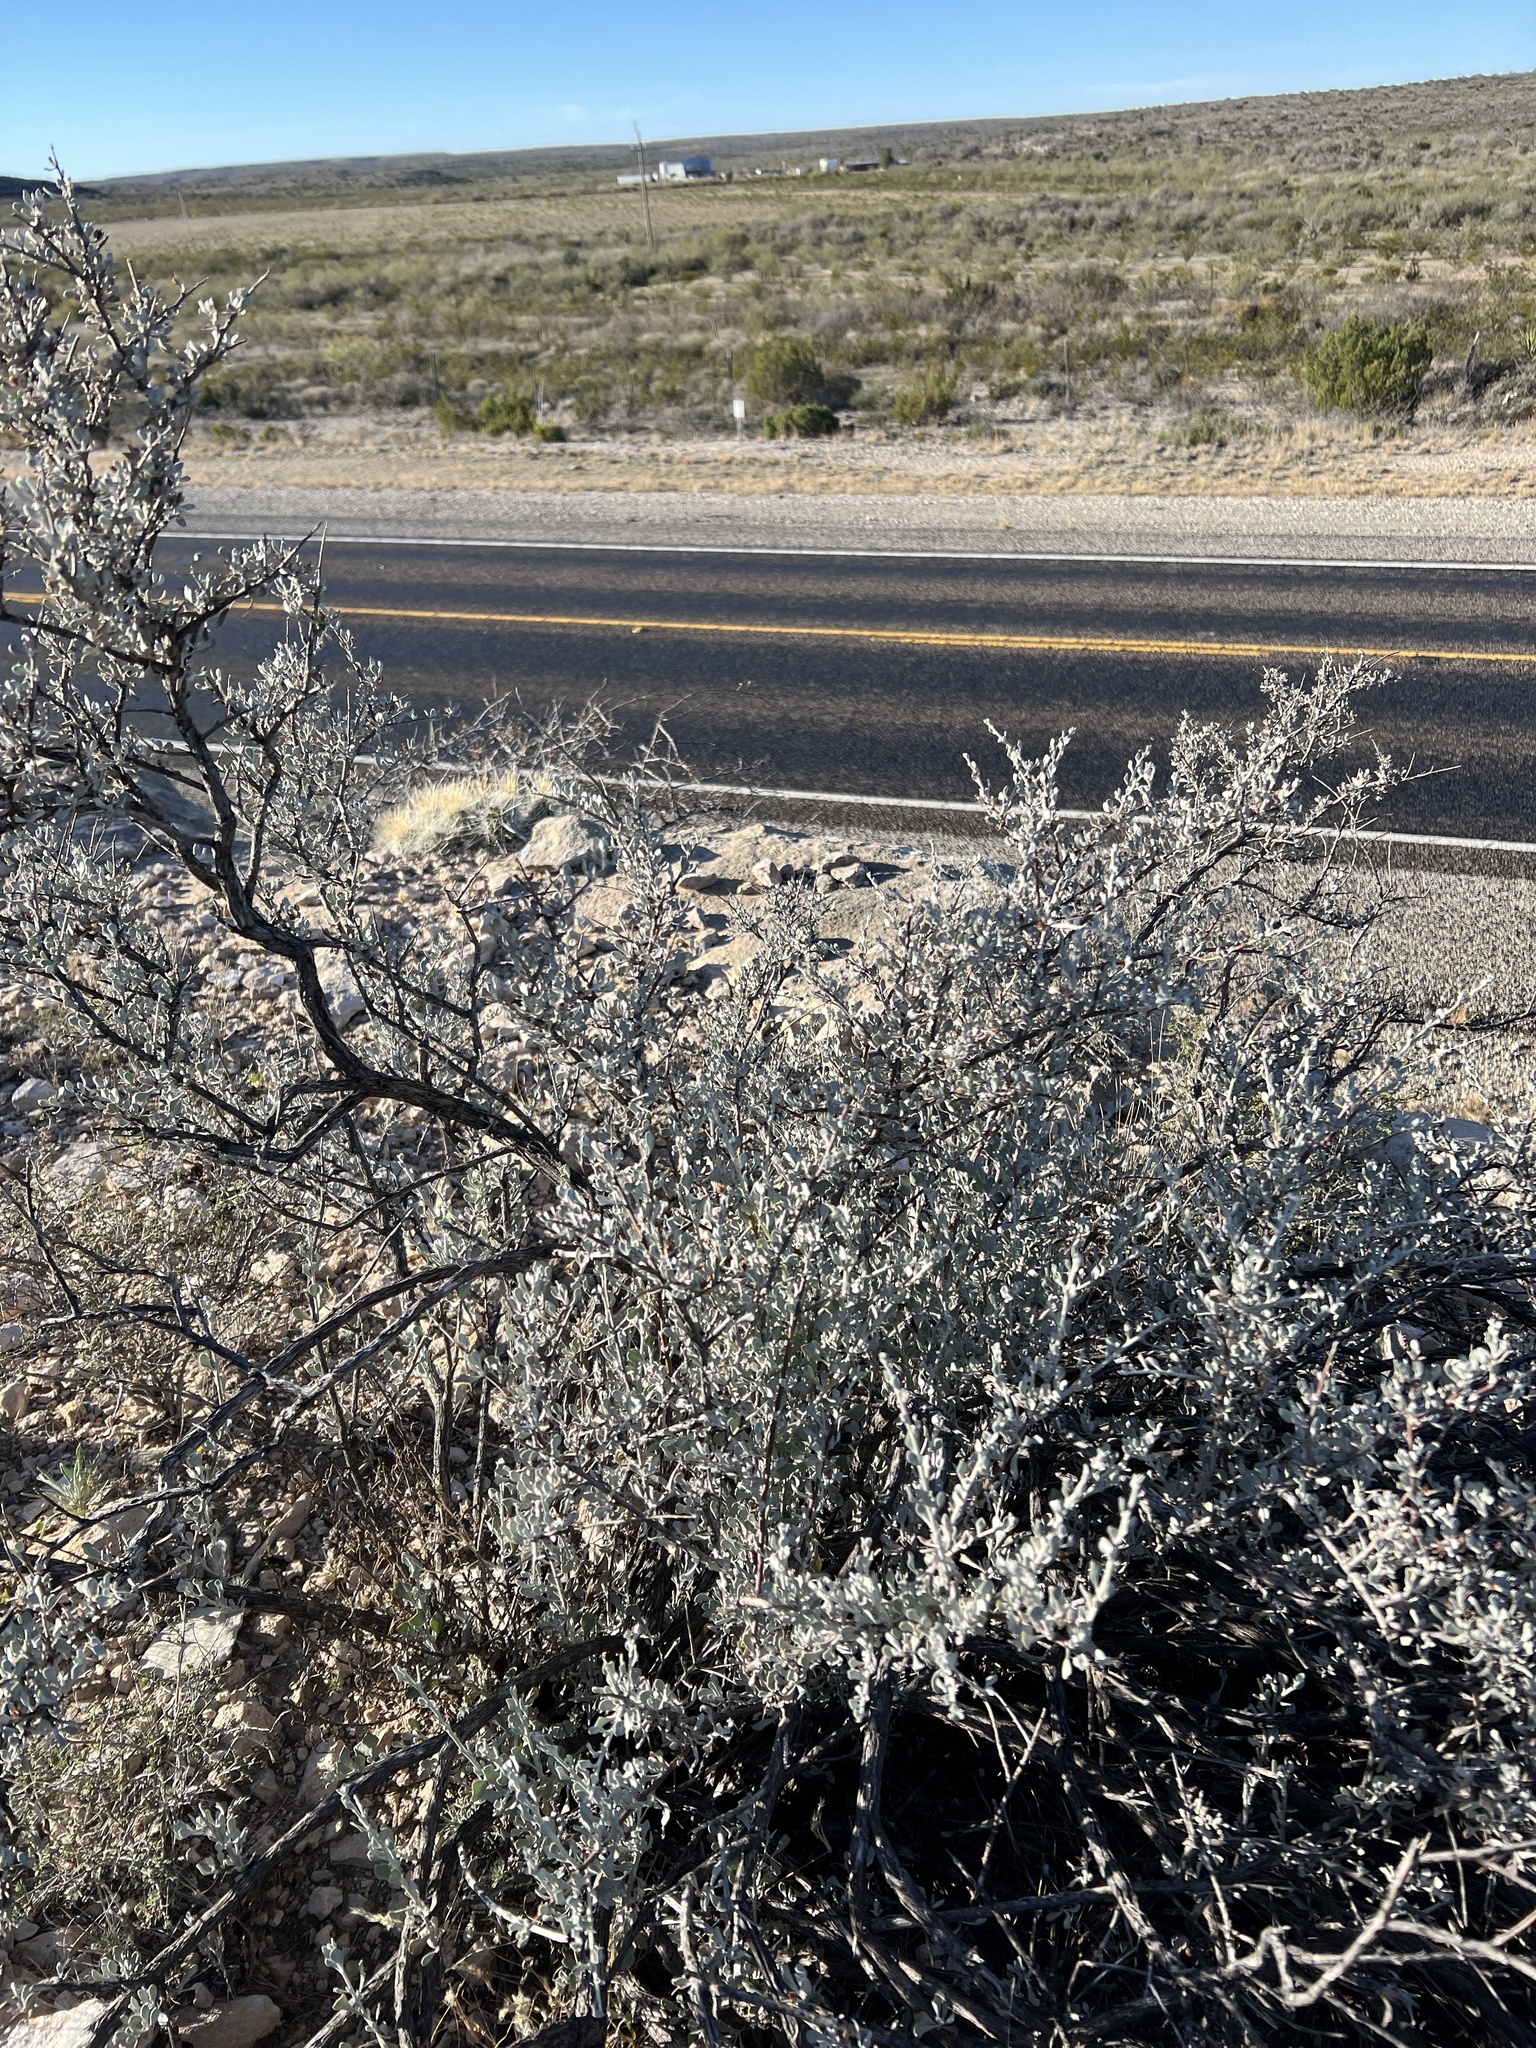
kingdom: Plantae
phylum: Tracheophyta
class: Magnoliopsida
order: Lamiales
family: Scrophulariaceae
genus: Leucophyllum
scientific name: Leucophyllum minus
